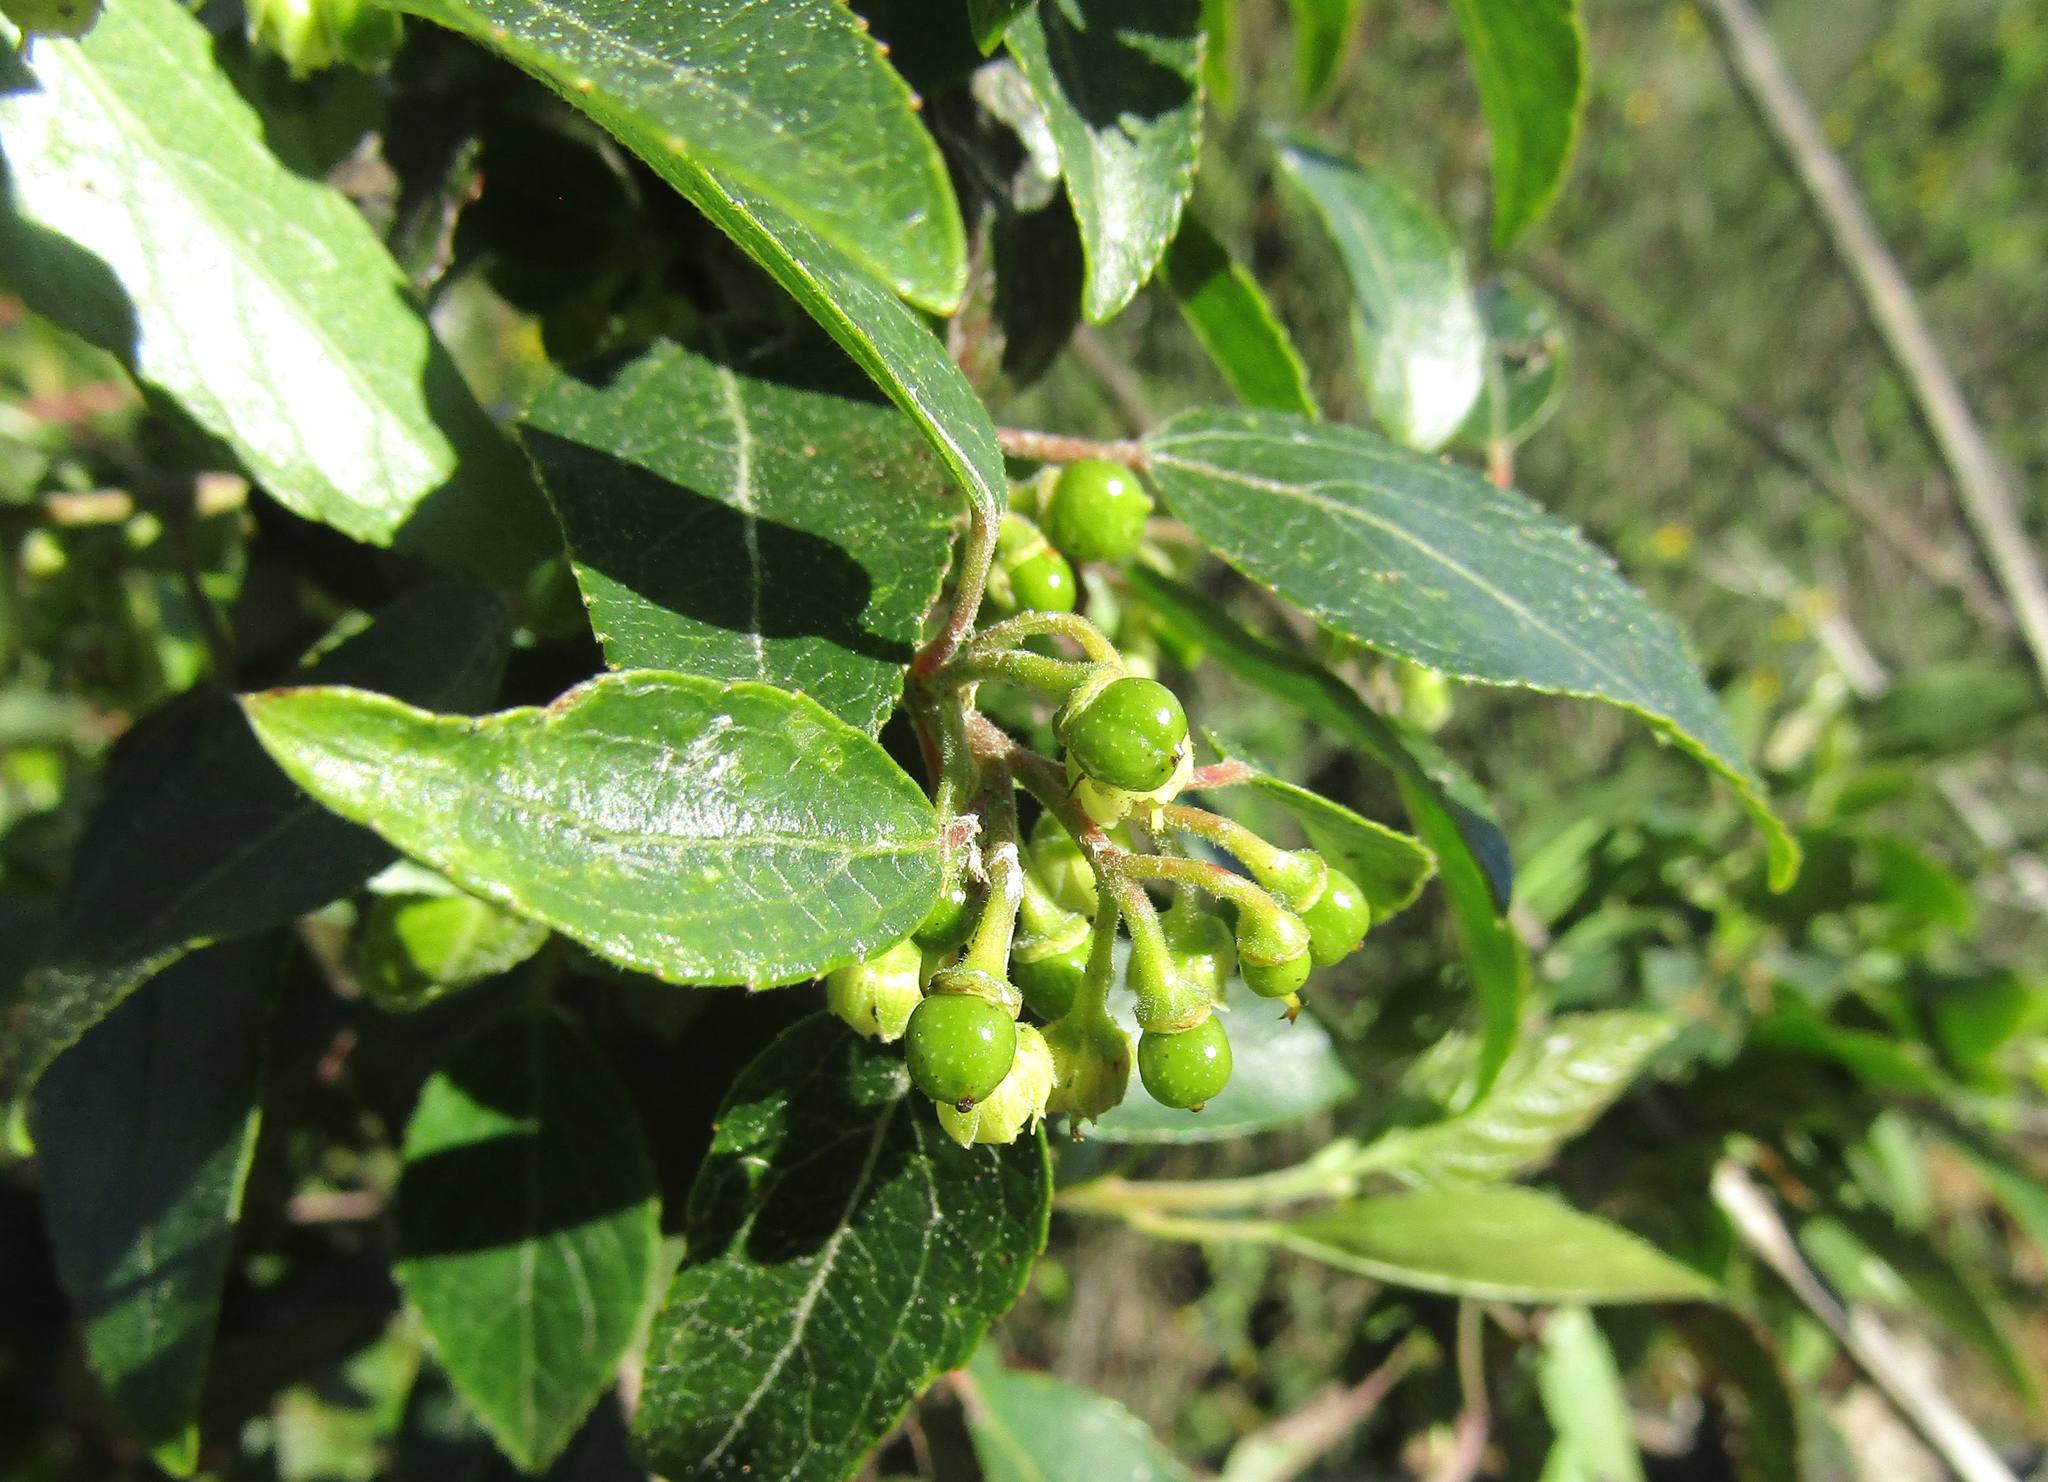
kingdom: Plantae
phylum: Tracheophyta
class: Magnoliopsida
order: Oxalidales
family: Elaeocarpaceae
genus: Aristotelia
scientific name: Aristotelia chilensis
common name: Maquei
